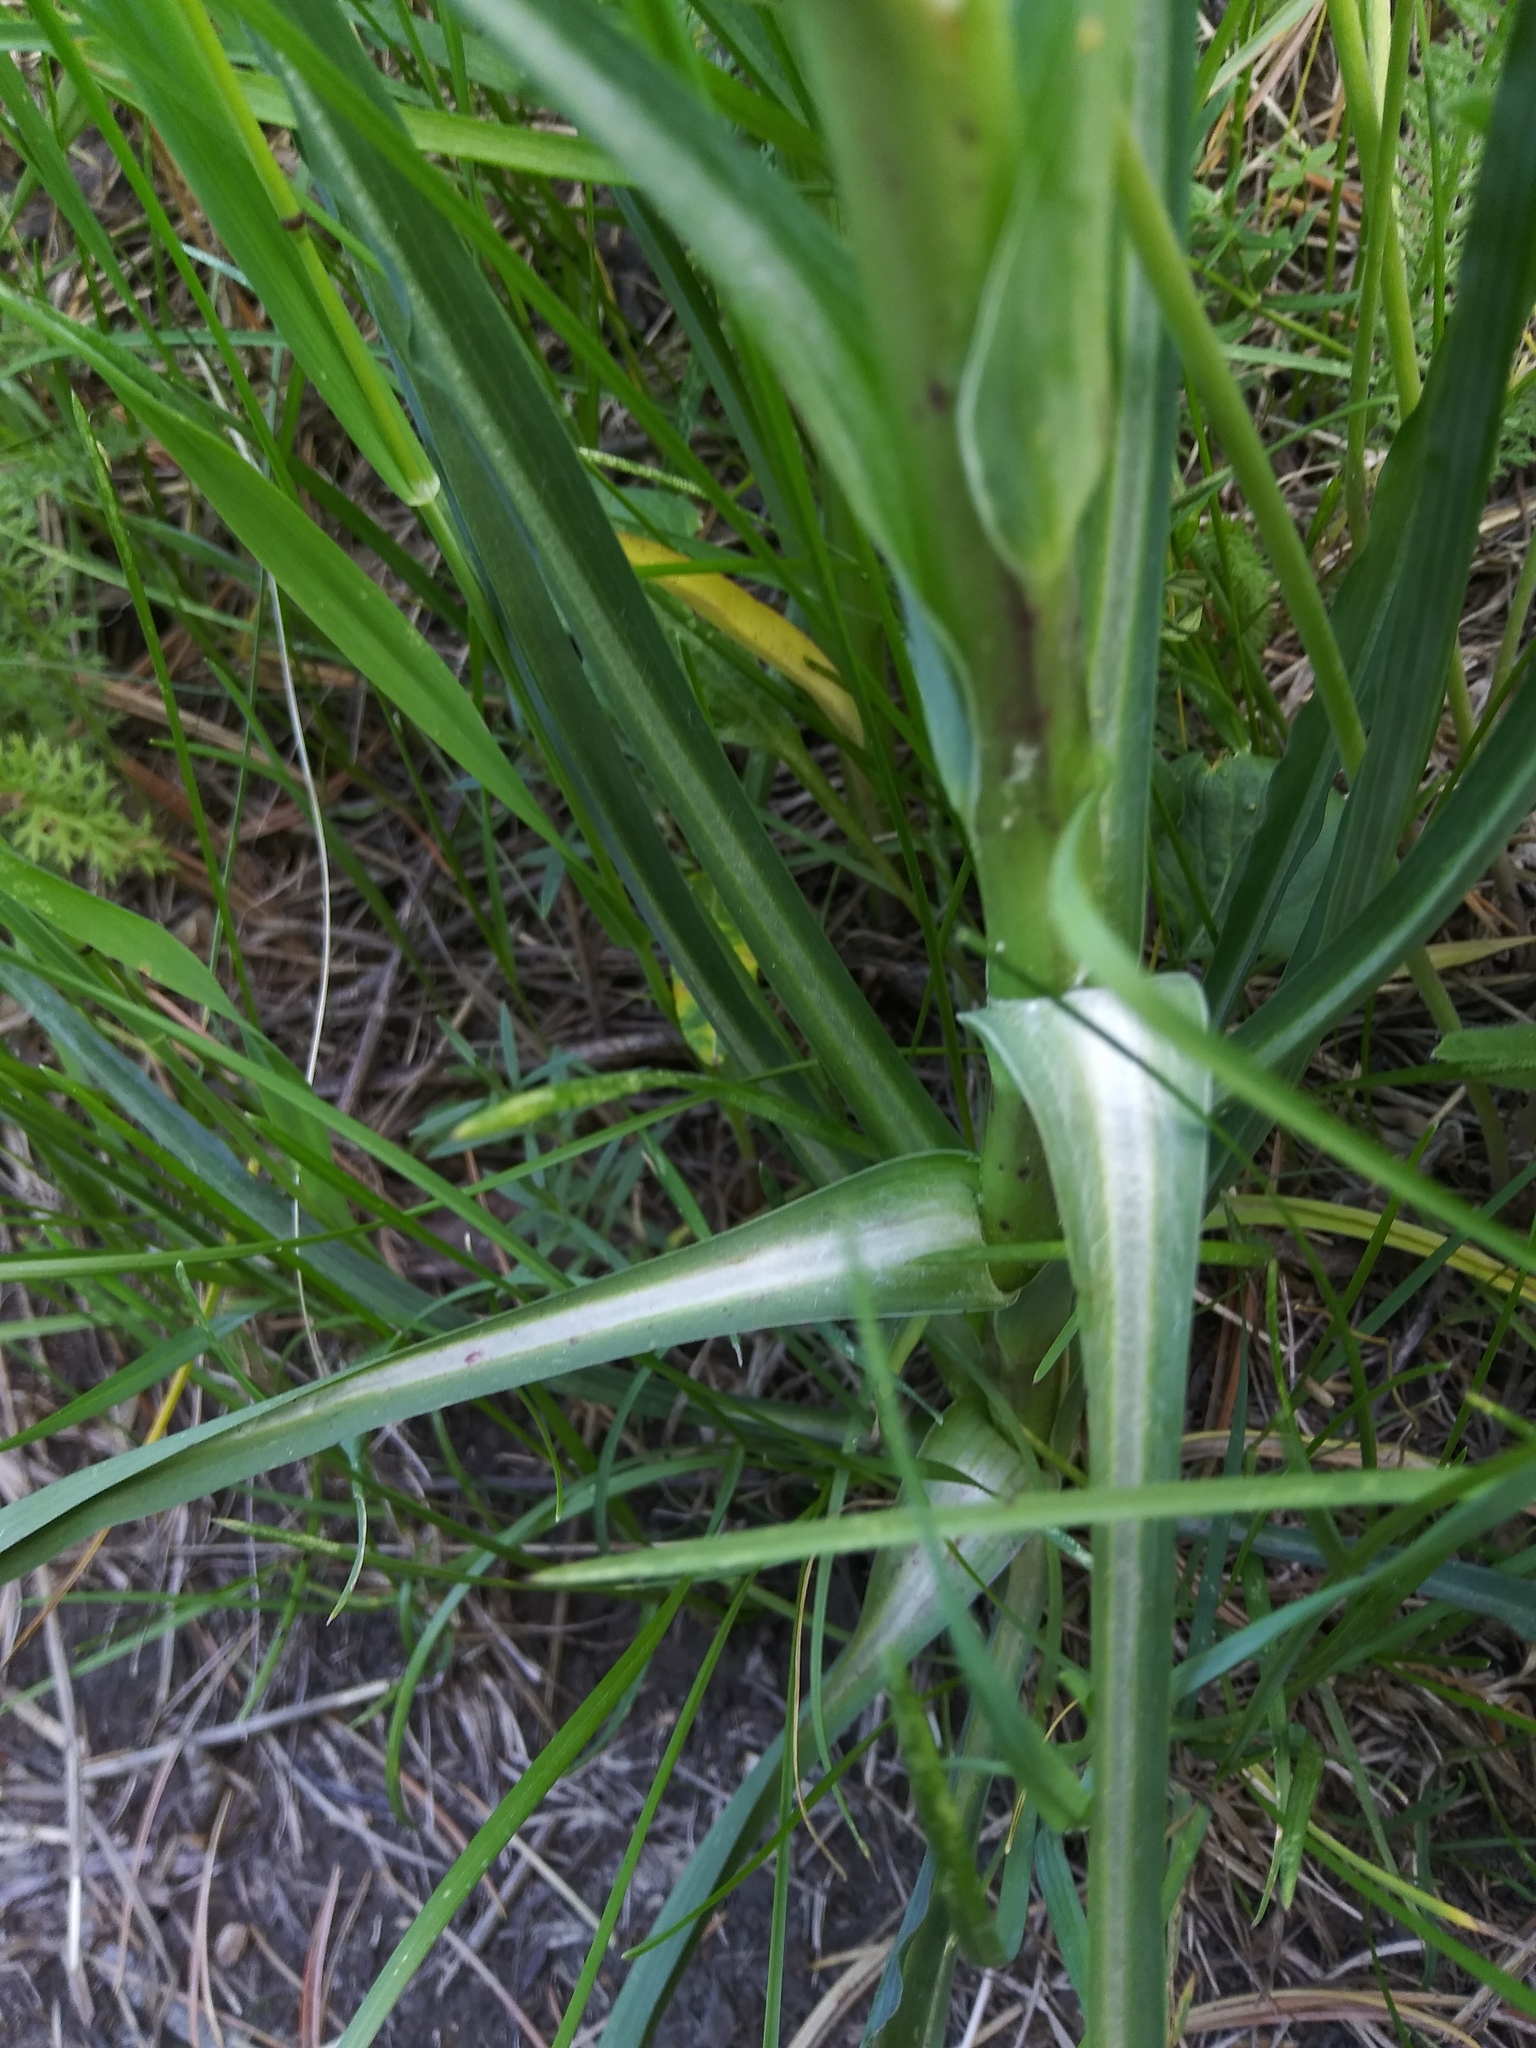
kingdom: Plantae
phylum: Tracheophyta
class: Magnoliopsida
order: Asterales
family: Asteraceae
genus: Tragopogon
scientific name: Tragopogon dubius
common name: Yellow salsify
